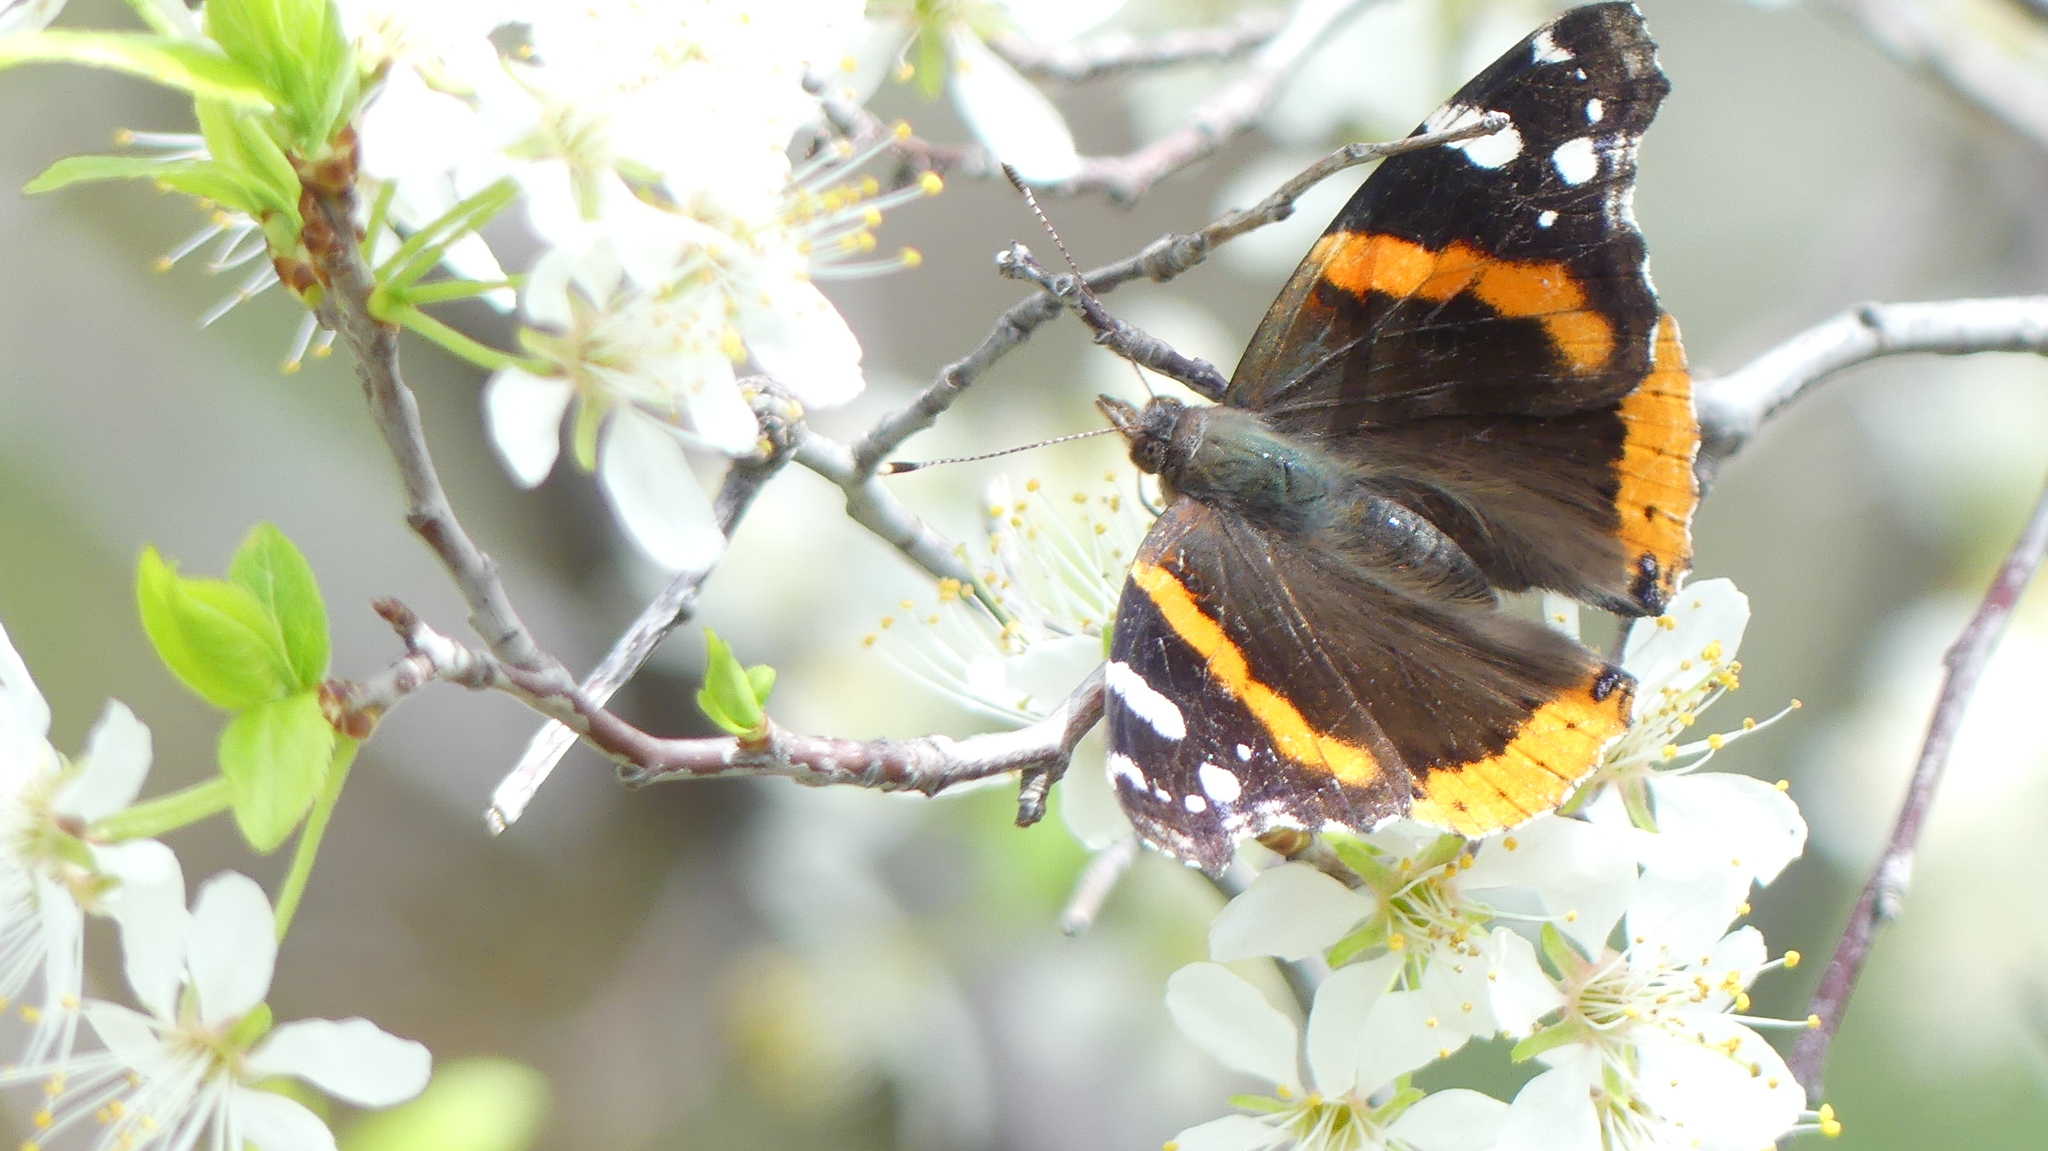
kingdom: Animalia
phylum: Arthropoda
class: Insecta
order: Lepidoptera
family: Nymphalidae
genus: Vanessa
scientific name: Vanessa atalanta
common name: Red admiral
